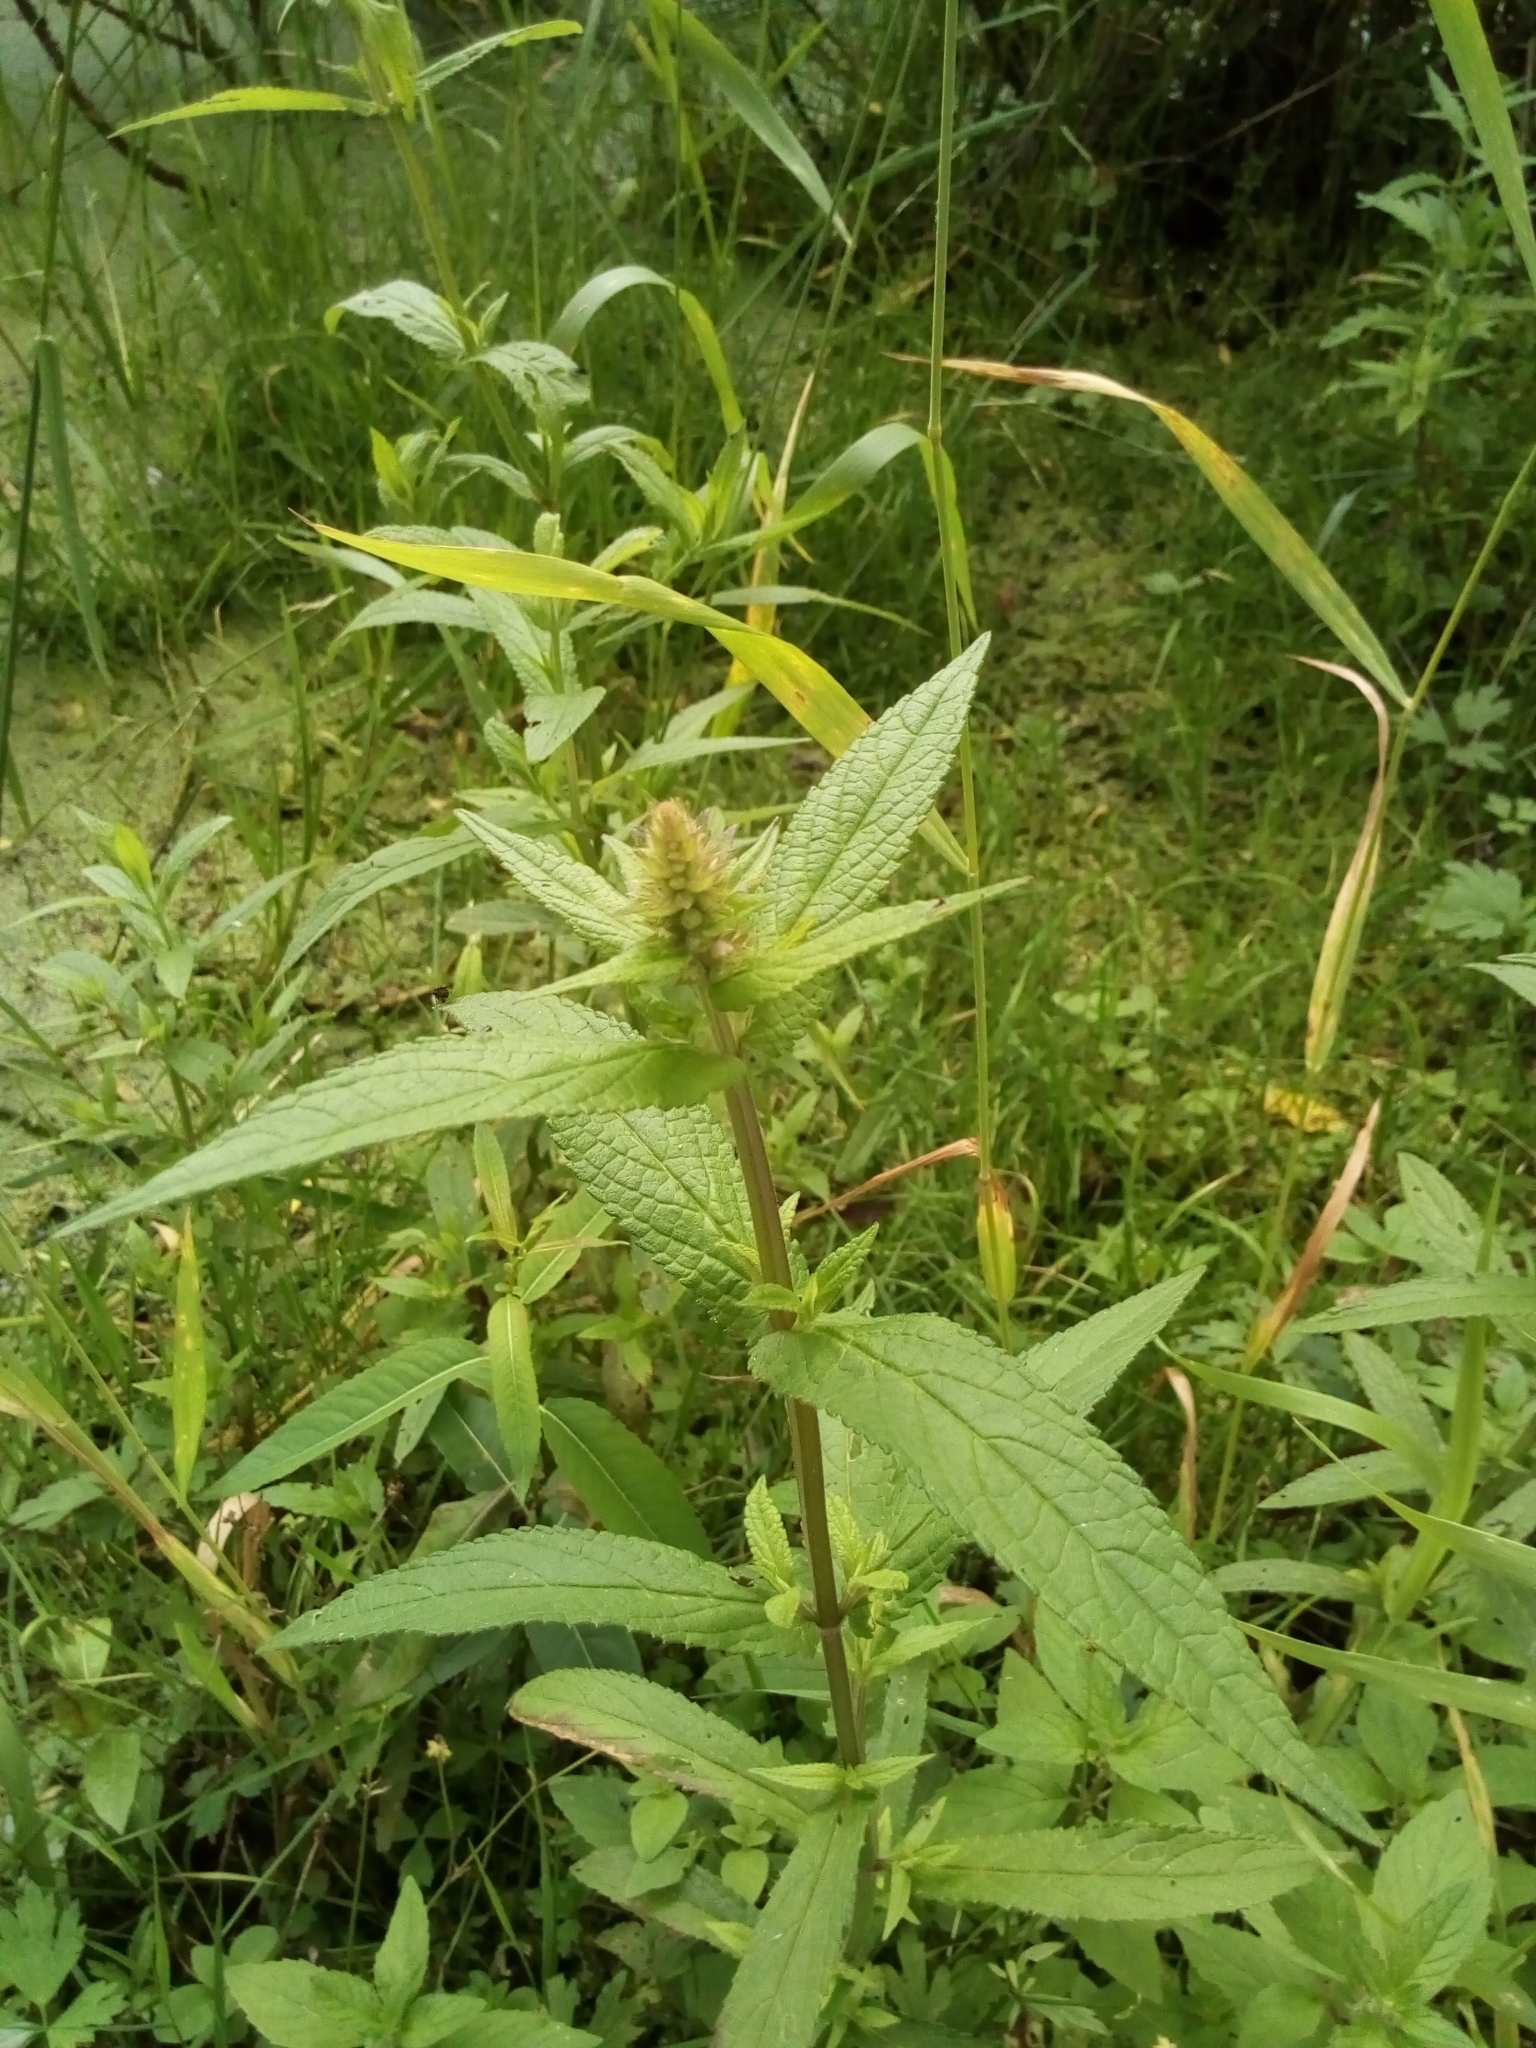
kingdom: Plantae
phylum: Tracheophyta
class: Magnoliopsida
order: Lamiales
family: Lamiaceae
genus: Stachys
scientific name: Stachys palustris
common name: Marsh woundwort
